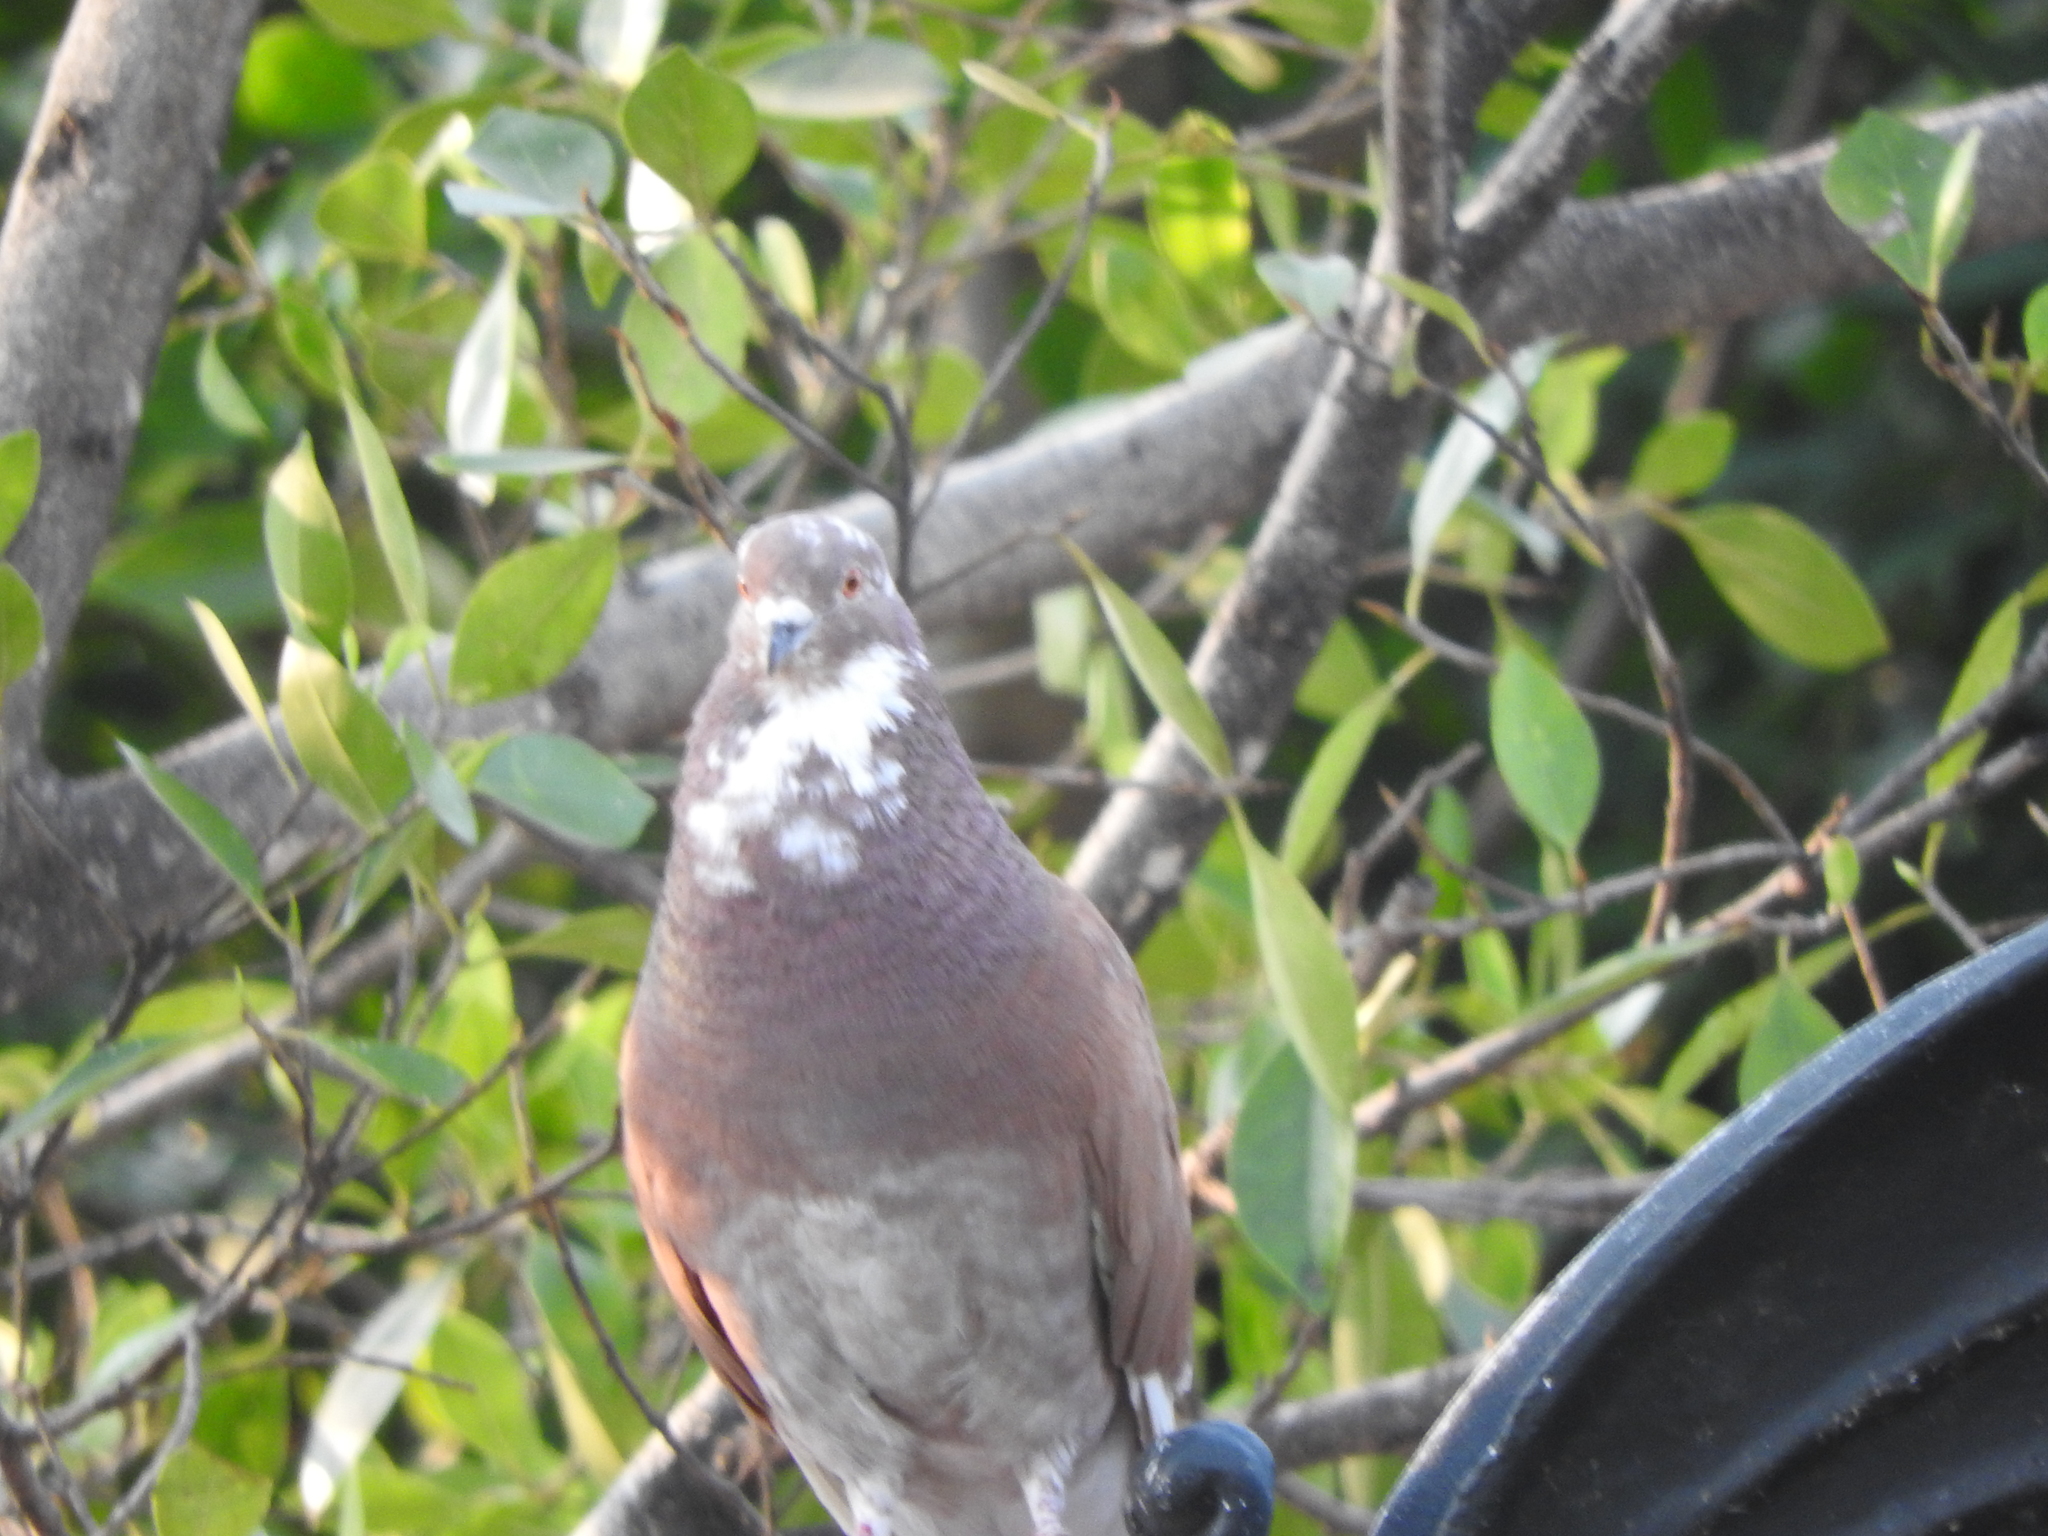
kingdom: Animalia
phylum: Chordata
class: Aves
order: Columbiformes
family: Columbidae
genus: Columba
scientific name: Columba livia
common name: Rock pigeon
